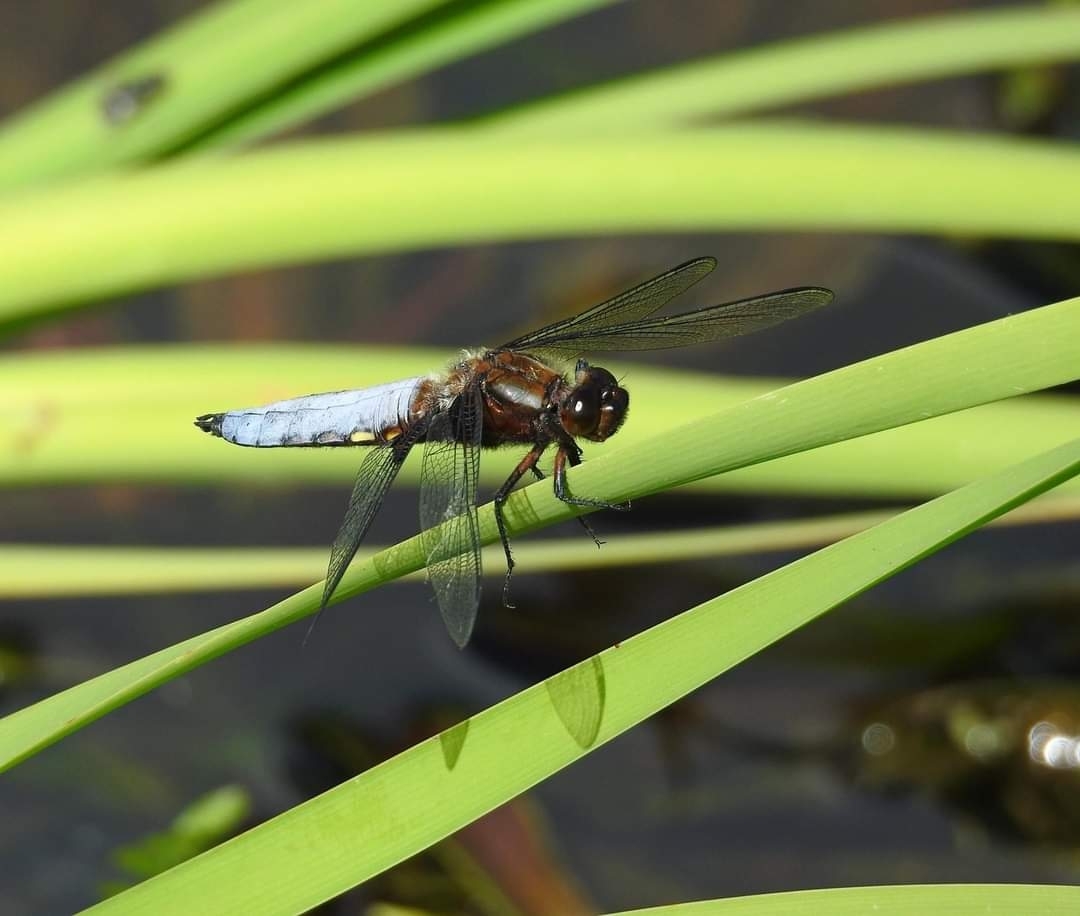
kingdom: Animalia
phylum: Arthropoda
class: Insecta
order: Odonata
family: Libellulidae
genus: Libellula
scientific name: Libellula depressa
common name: Broad-bodied chaser
